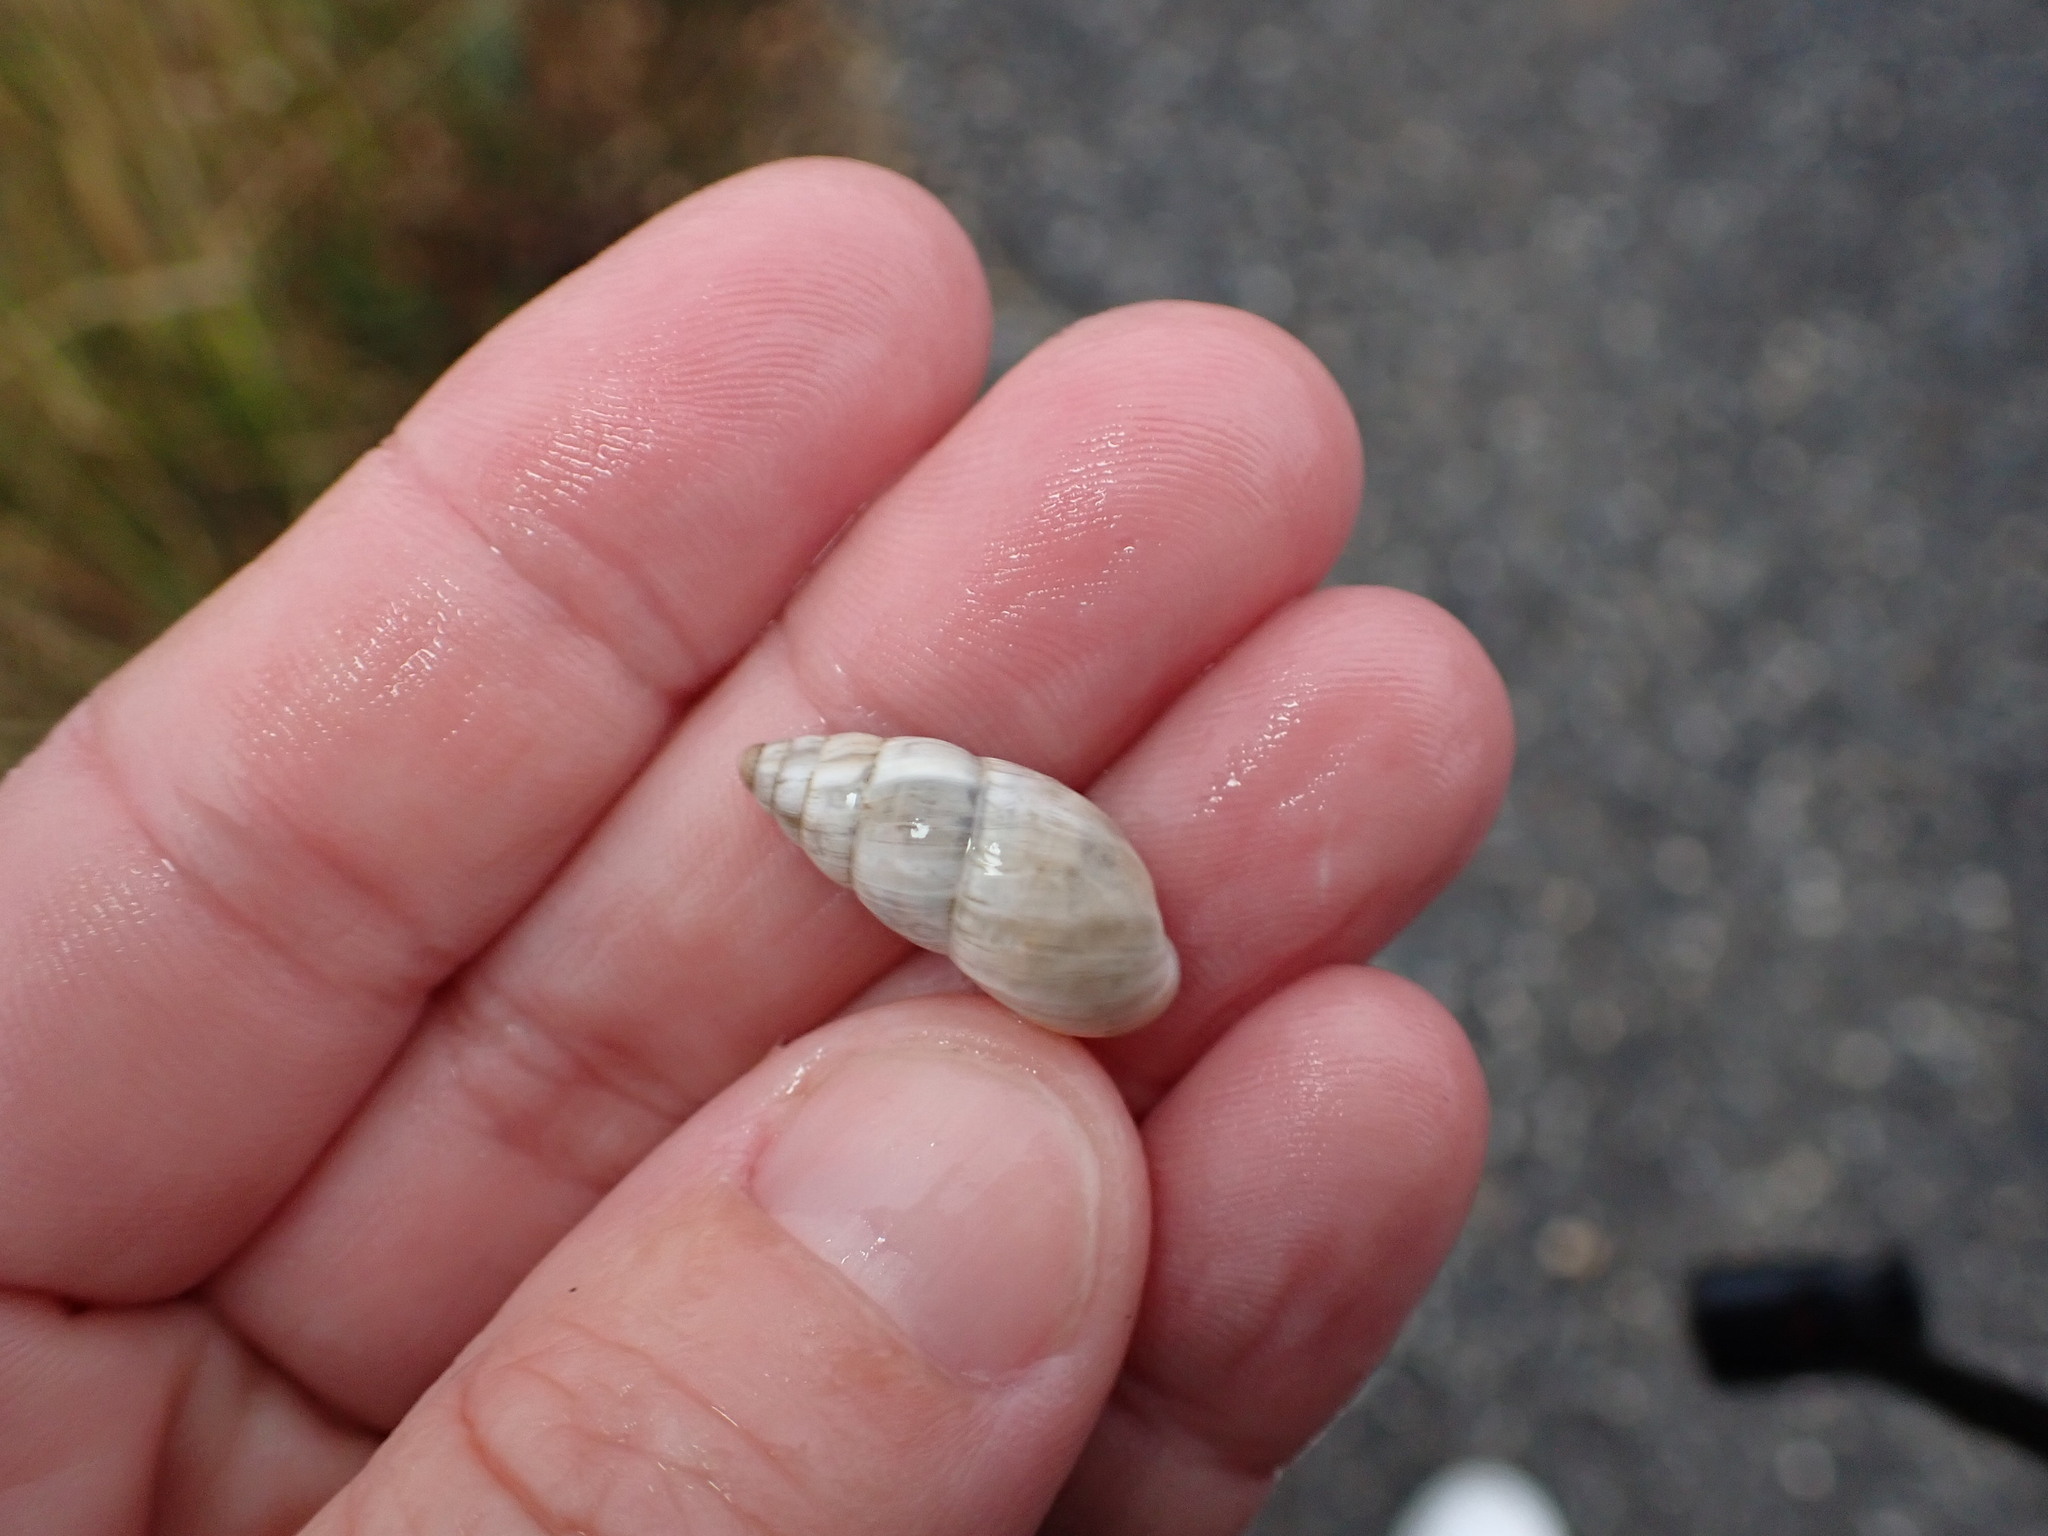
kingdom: Animalia
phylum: Mollusca
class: Gastropoda
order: Stylommatophora
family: Enidae
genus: Zebrina
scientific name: Zebrina detrita
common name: Large bulin
